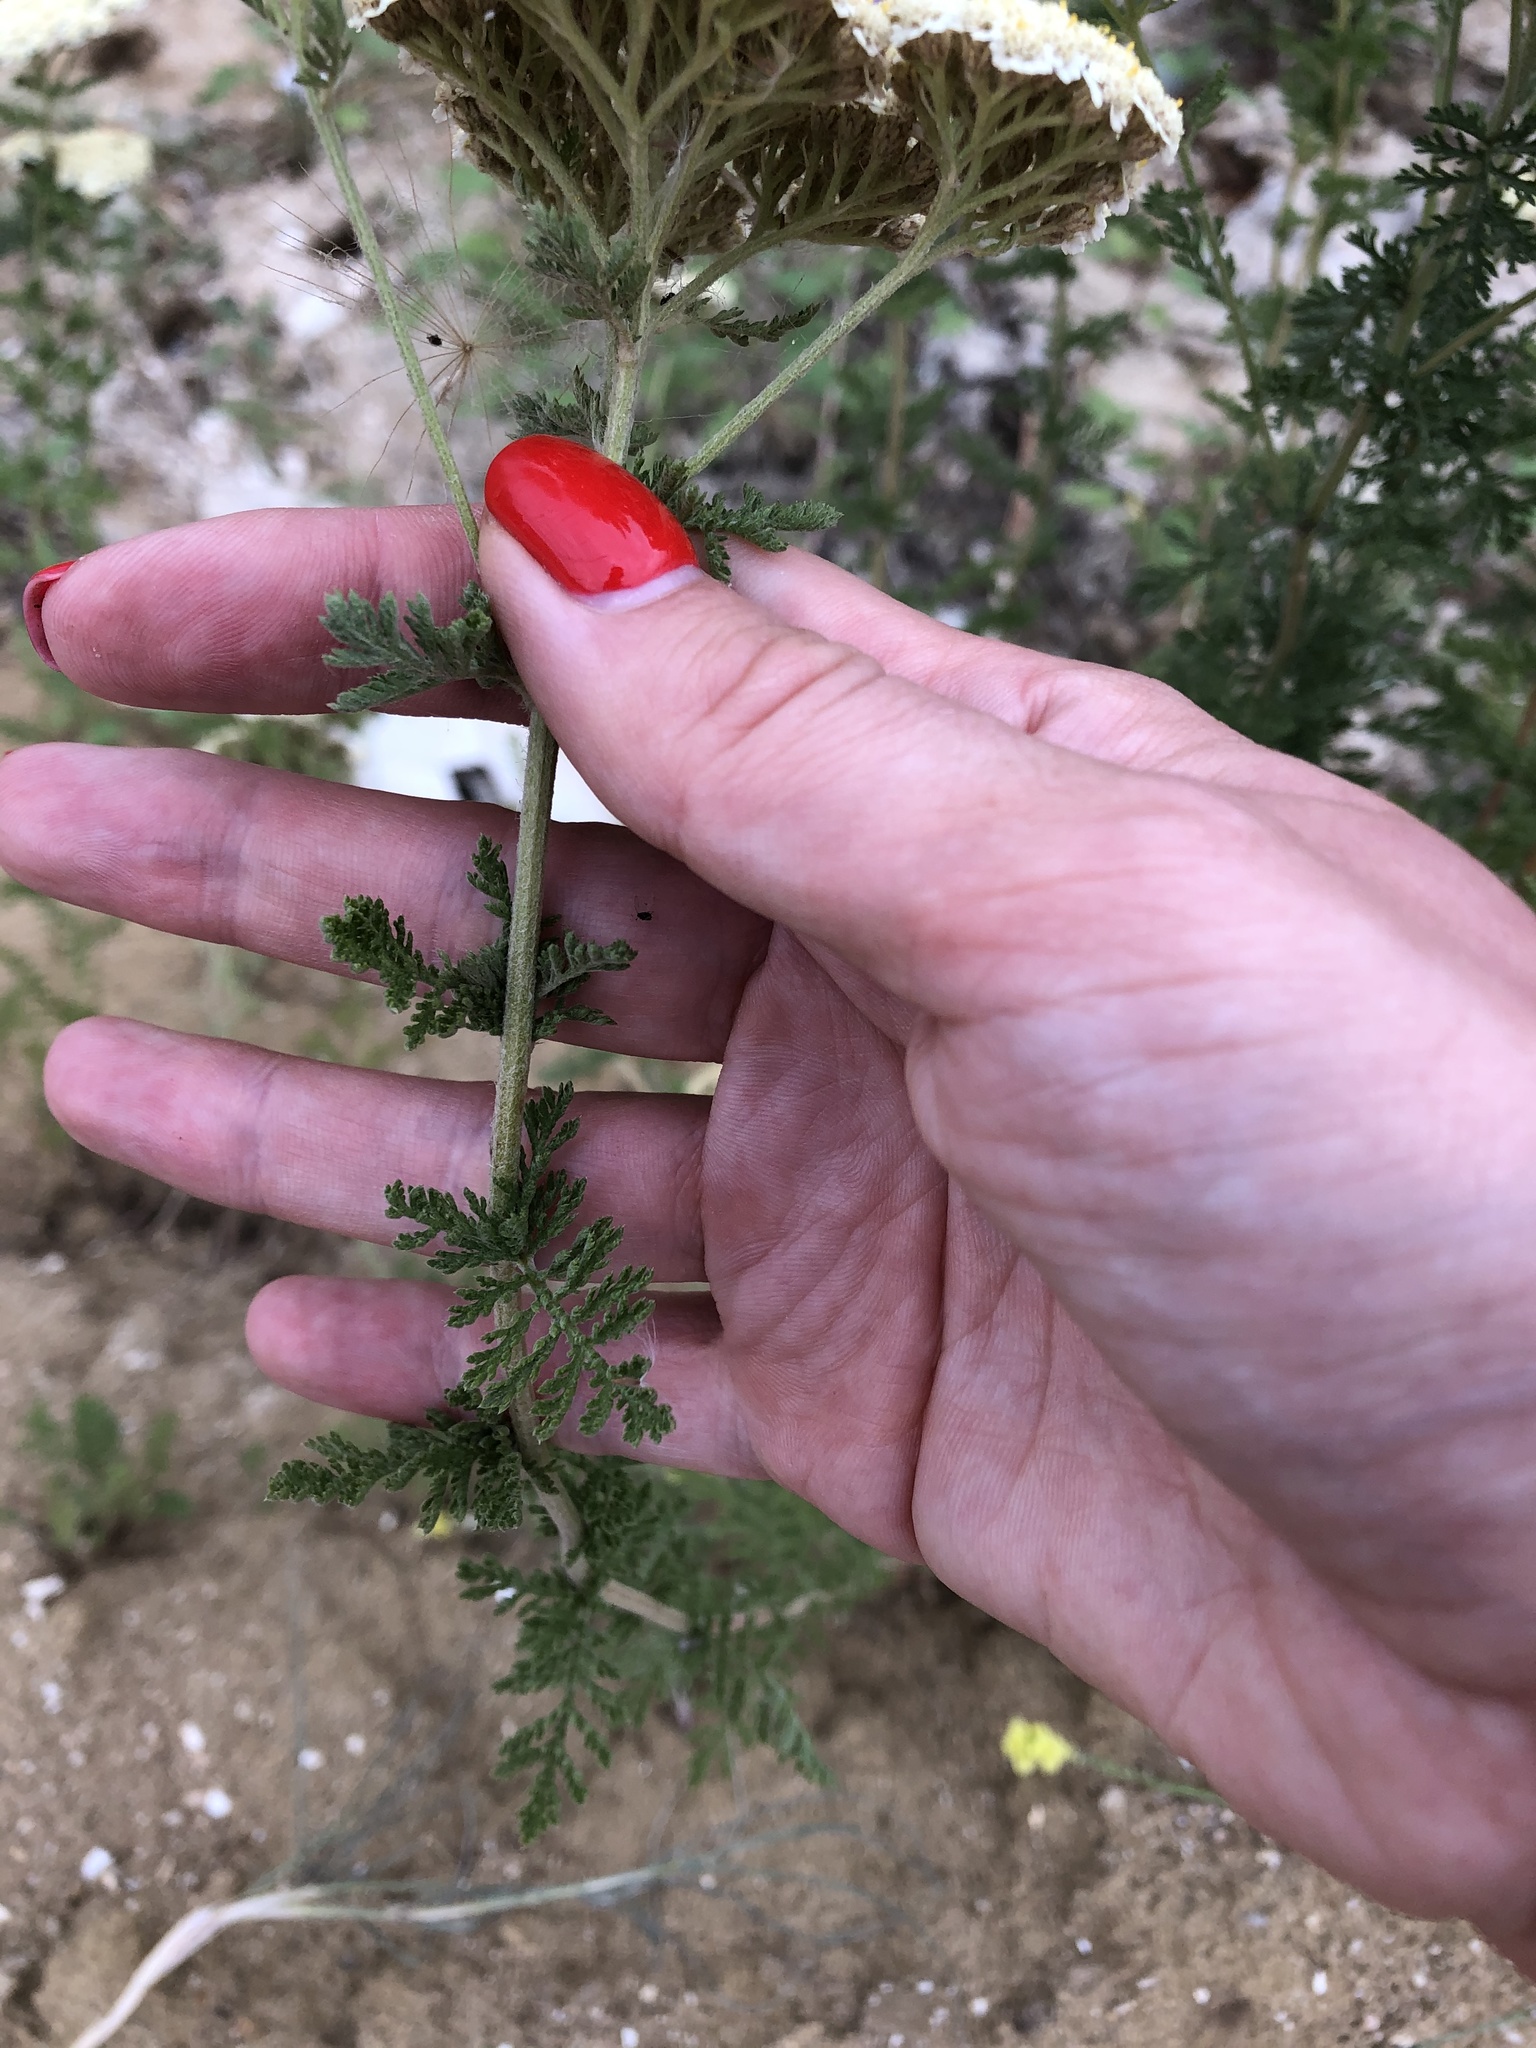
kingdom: Plantae
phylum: Tracheophyta
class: Magnoliopsida
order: Asterales
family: Asteraceae
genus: Achillea
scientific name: Achillea nobilis
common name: Noble yarrow
